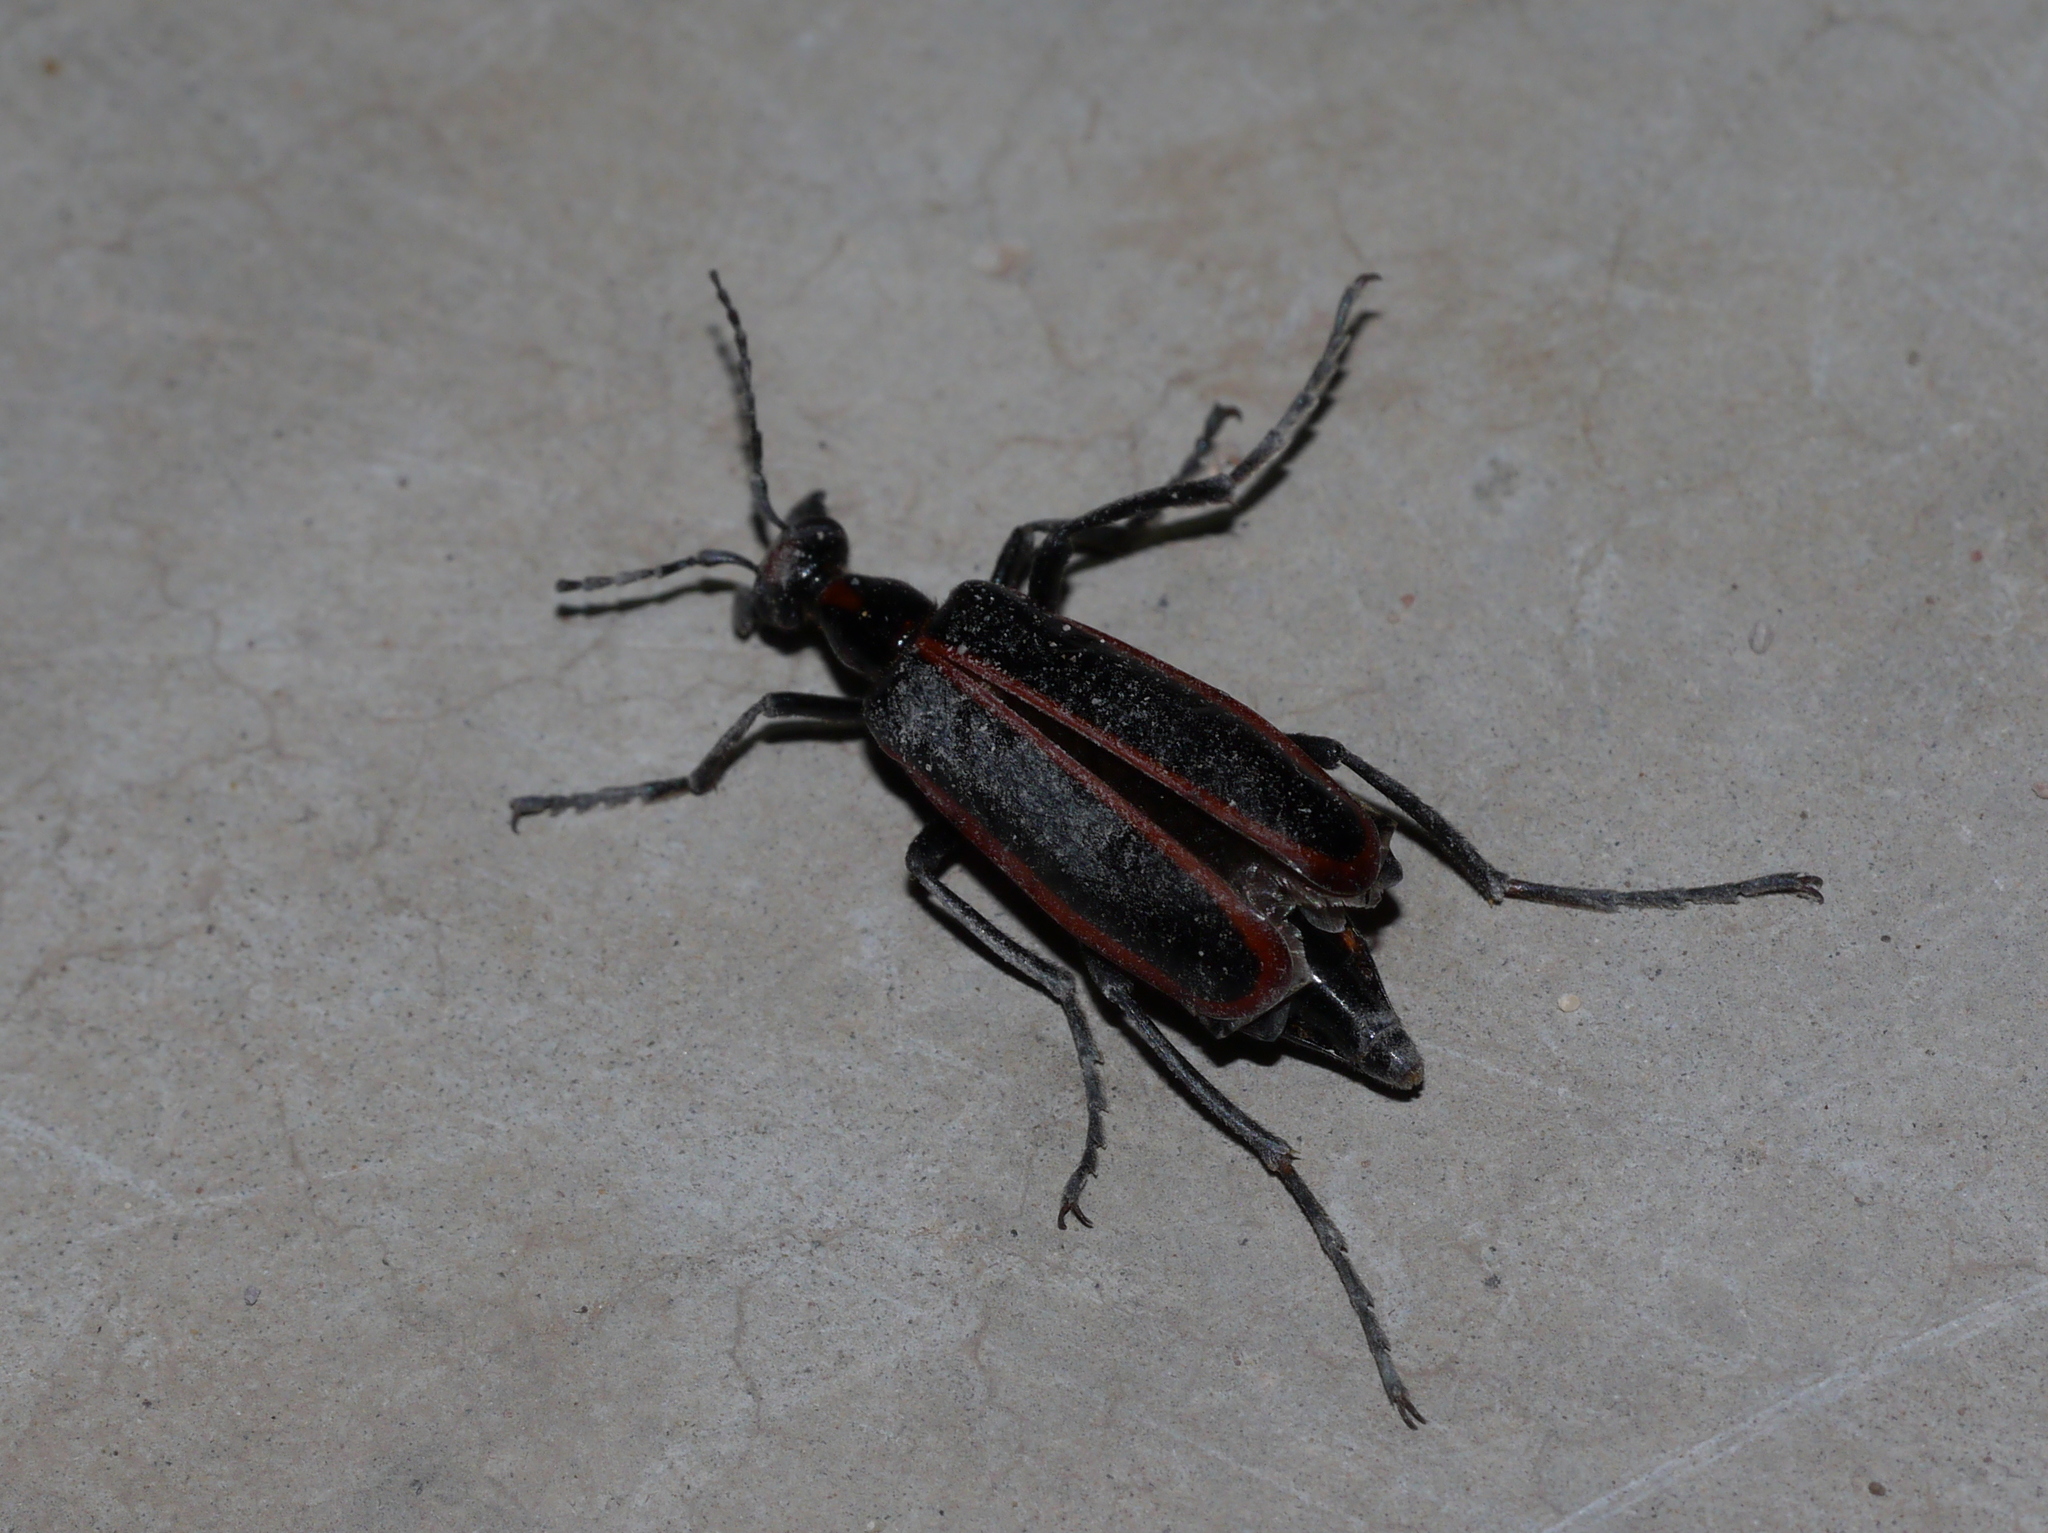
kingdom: Animalia
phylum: Arthropoda
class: Insecta
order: Coleoptera
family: Meloidae
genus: Pyrota
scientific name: Pyrota akhurstiana
